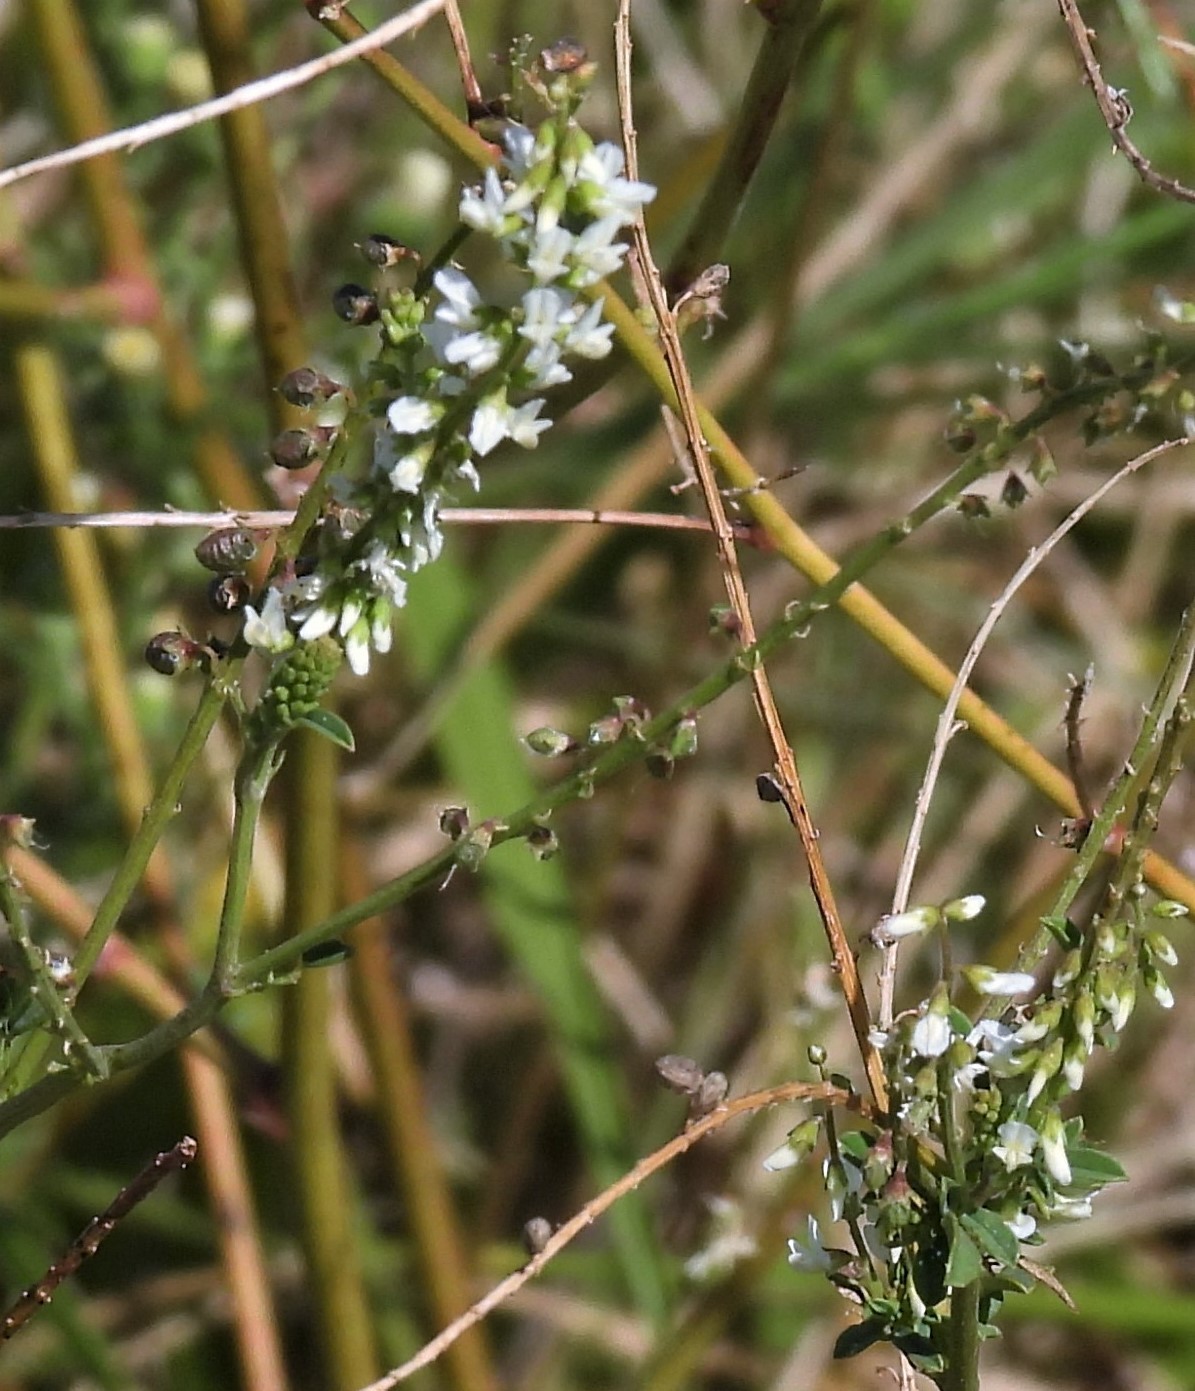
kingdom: Plantae
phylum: Tracheophyta
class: Magnoliopsida
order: Fabales
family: Fabaceae
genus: Melilotus
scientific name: Melilotus albus
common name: White melilot
